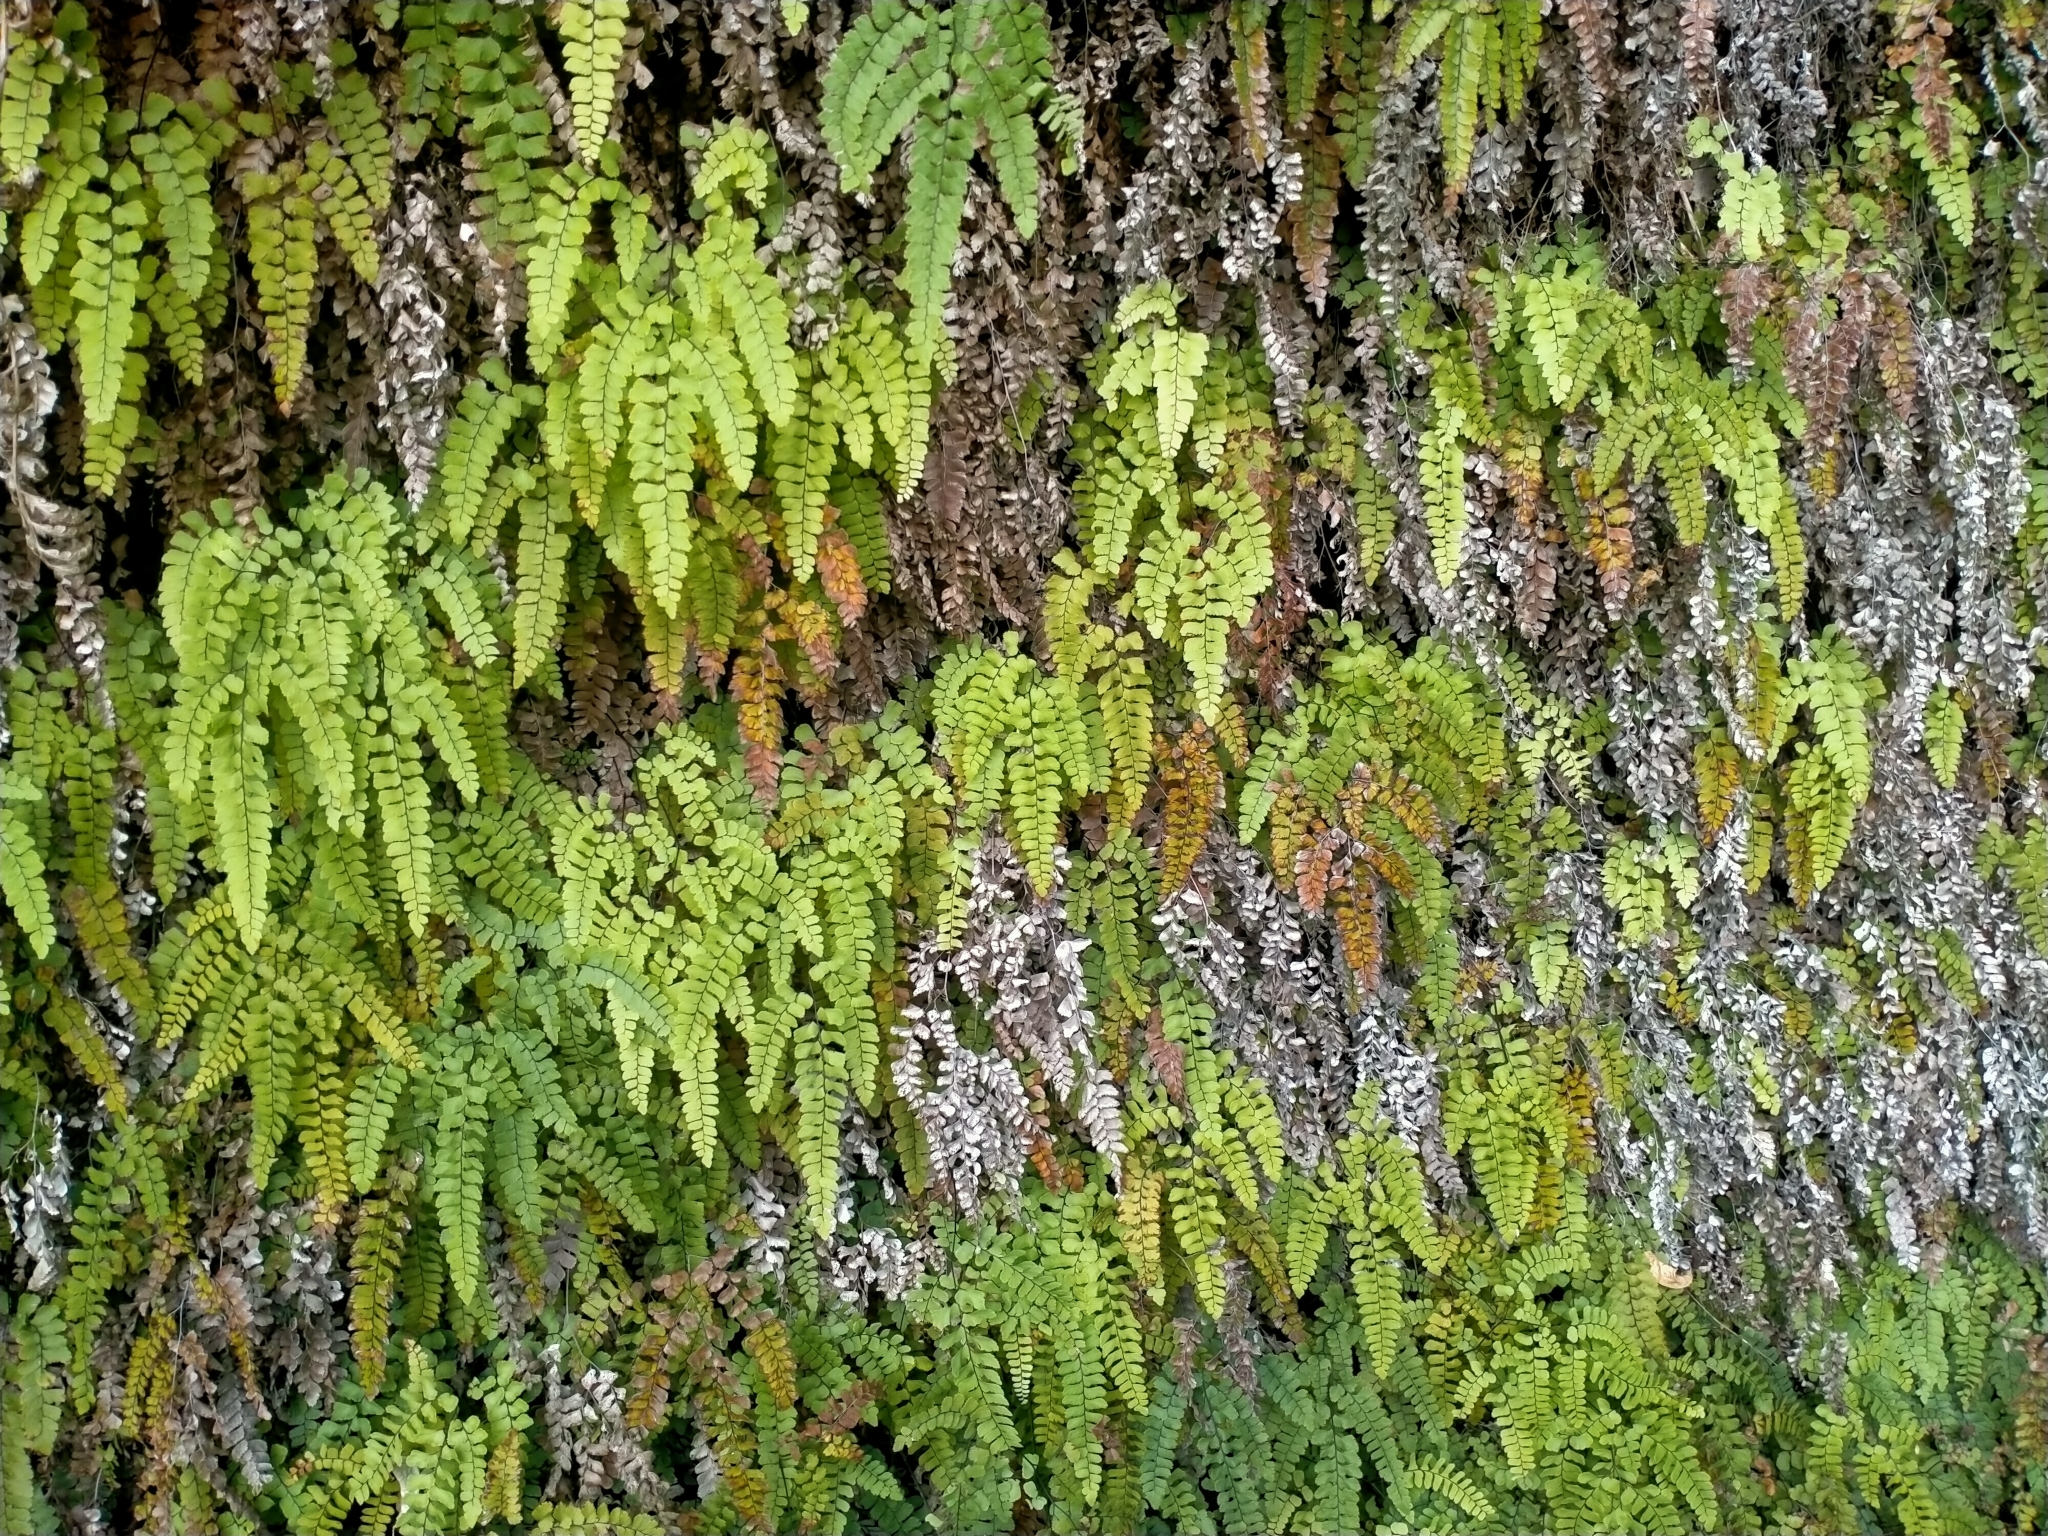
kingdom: Plantae
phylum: Tracheophyta
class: Polypodiopsida
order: Polypodiales
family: Pteridaceae
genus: Adiantum
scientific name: Adiantum cunninghamii
